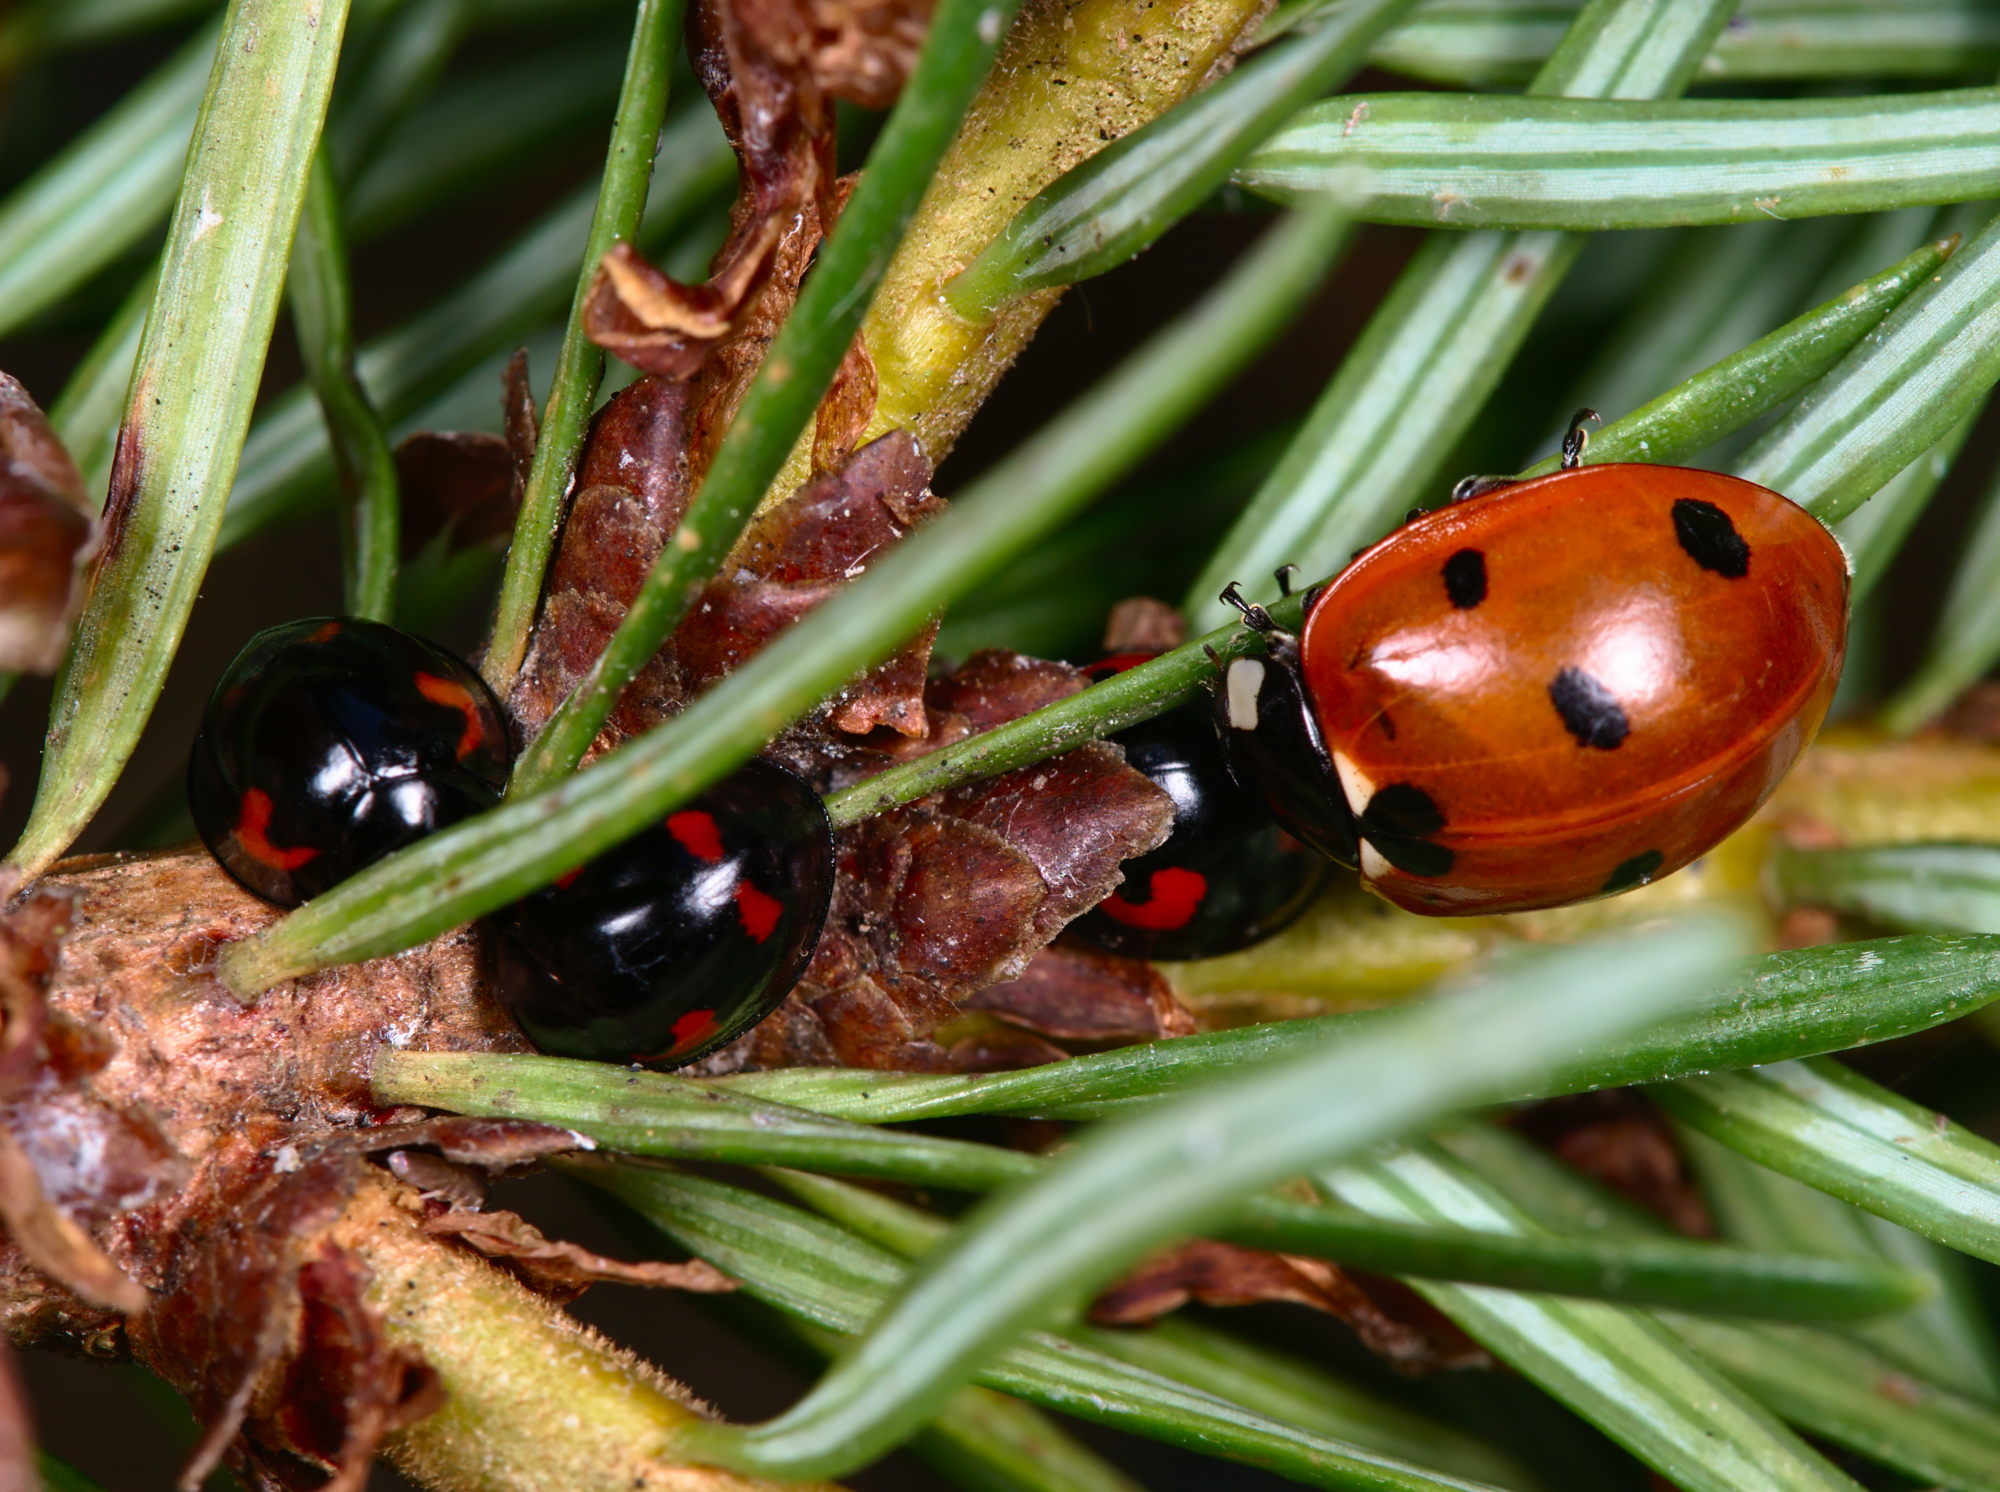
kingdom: Animalia
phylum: Arthropoda
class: Insecta
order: Coleoptera
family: Coccinellidae
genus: Coccinella
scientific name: Coccinella septempunctata
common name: Sevenspotted lady beetle
